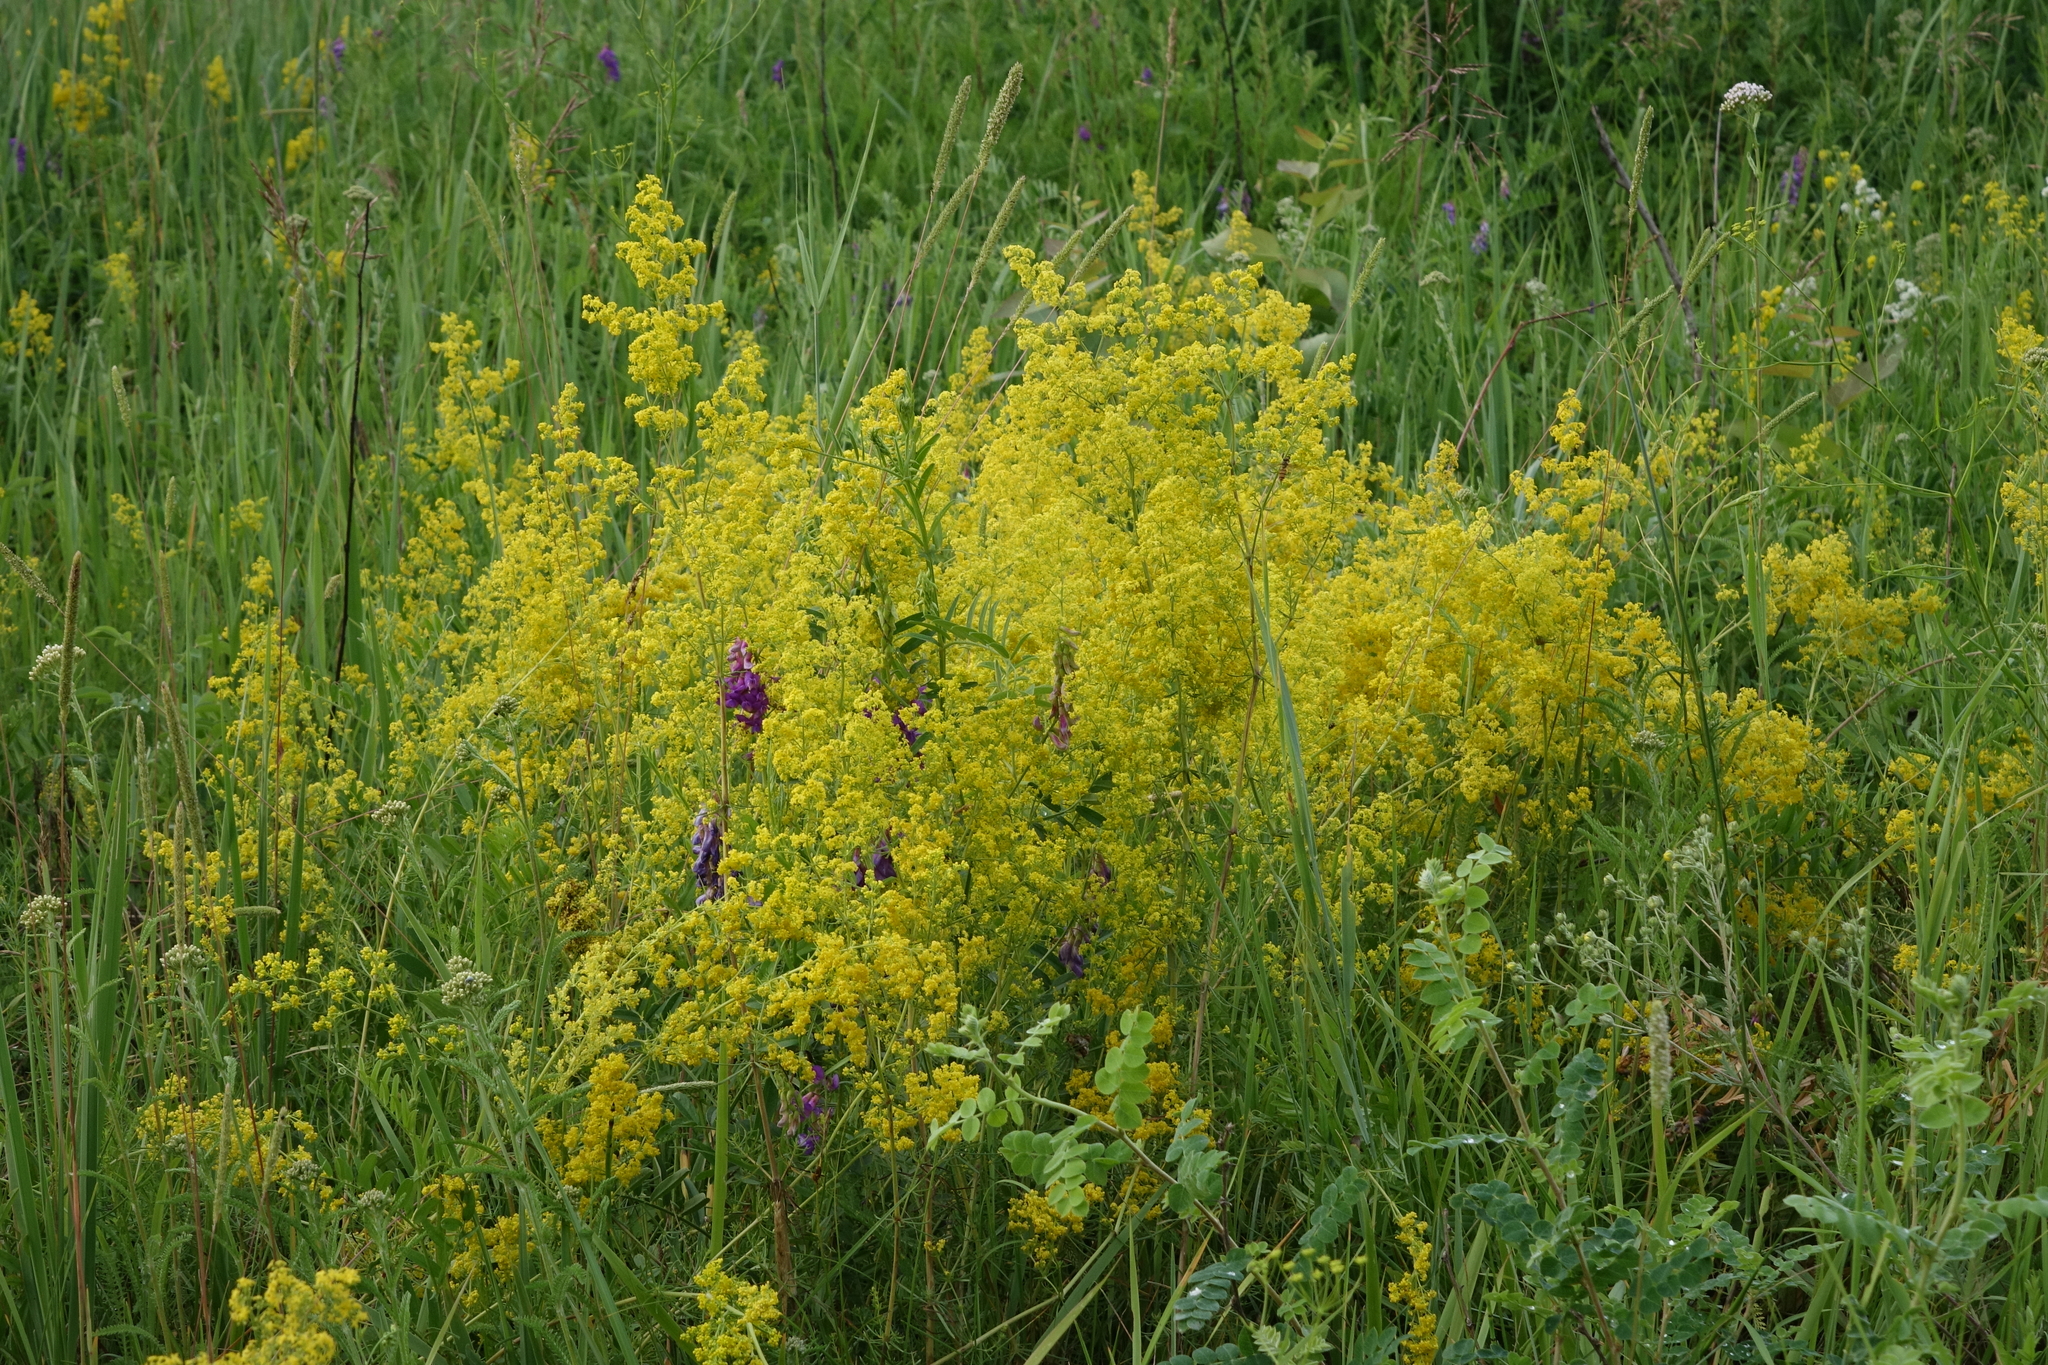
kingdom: Plantae
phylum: Tracheophyta
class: Magnoliopsida
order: Gentianales
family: Rubiaceae
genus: Galium
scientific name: Galium verum
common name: Lady's bedstraw
